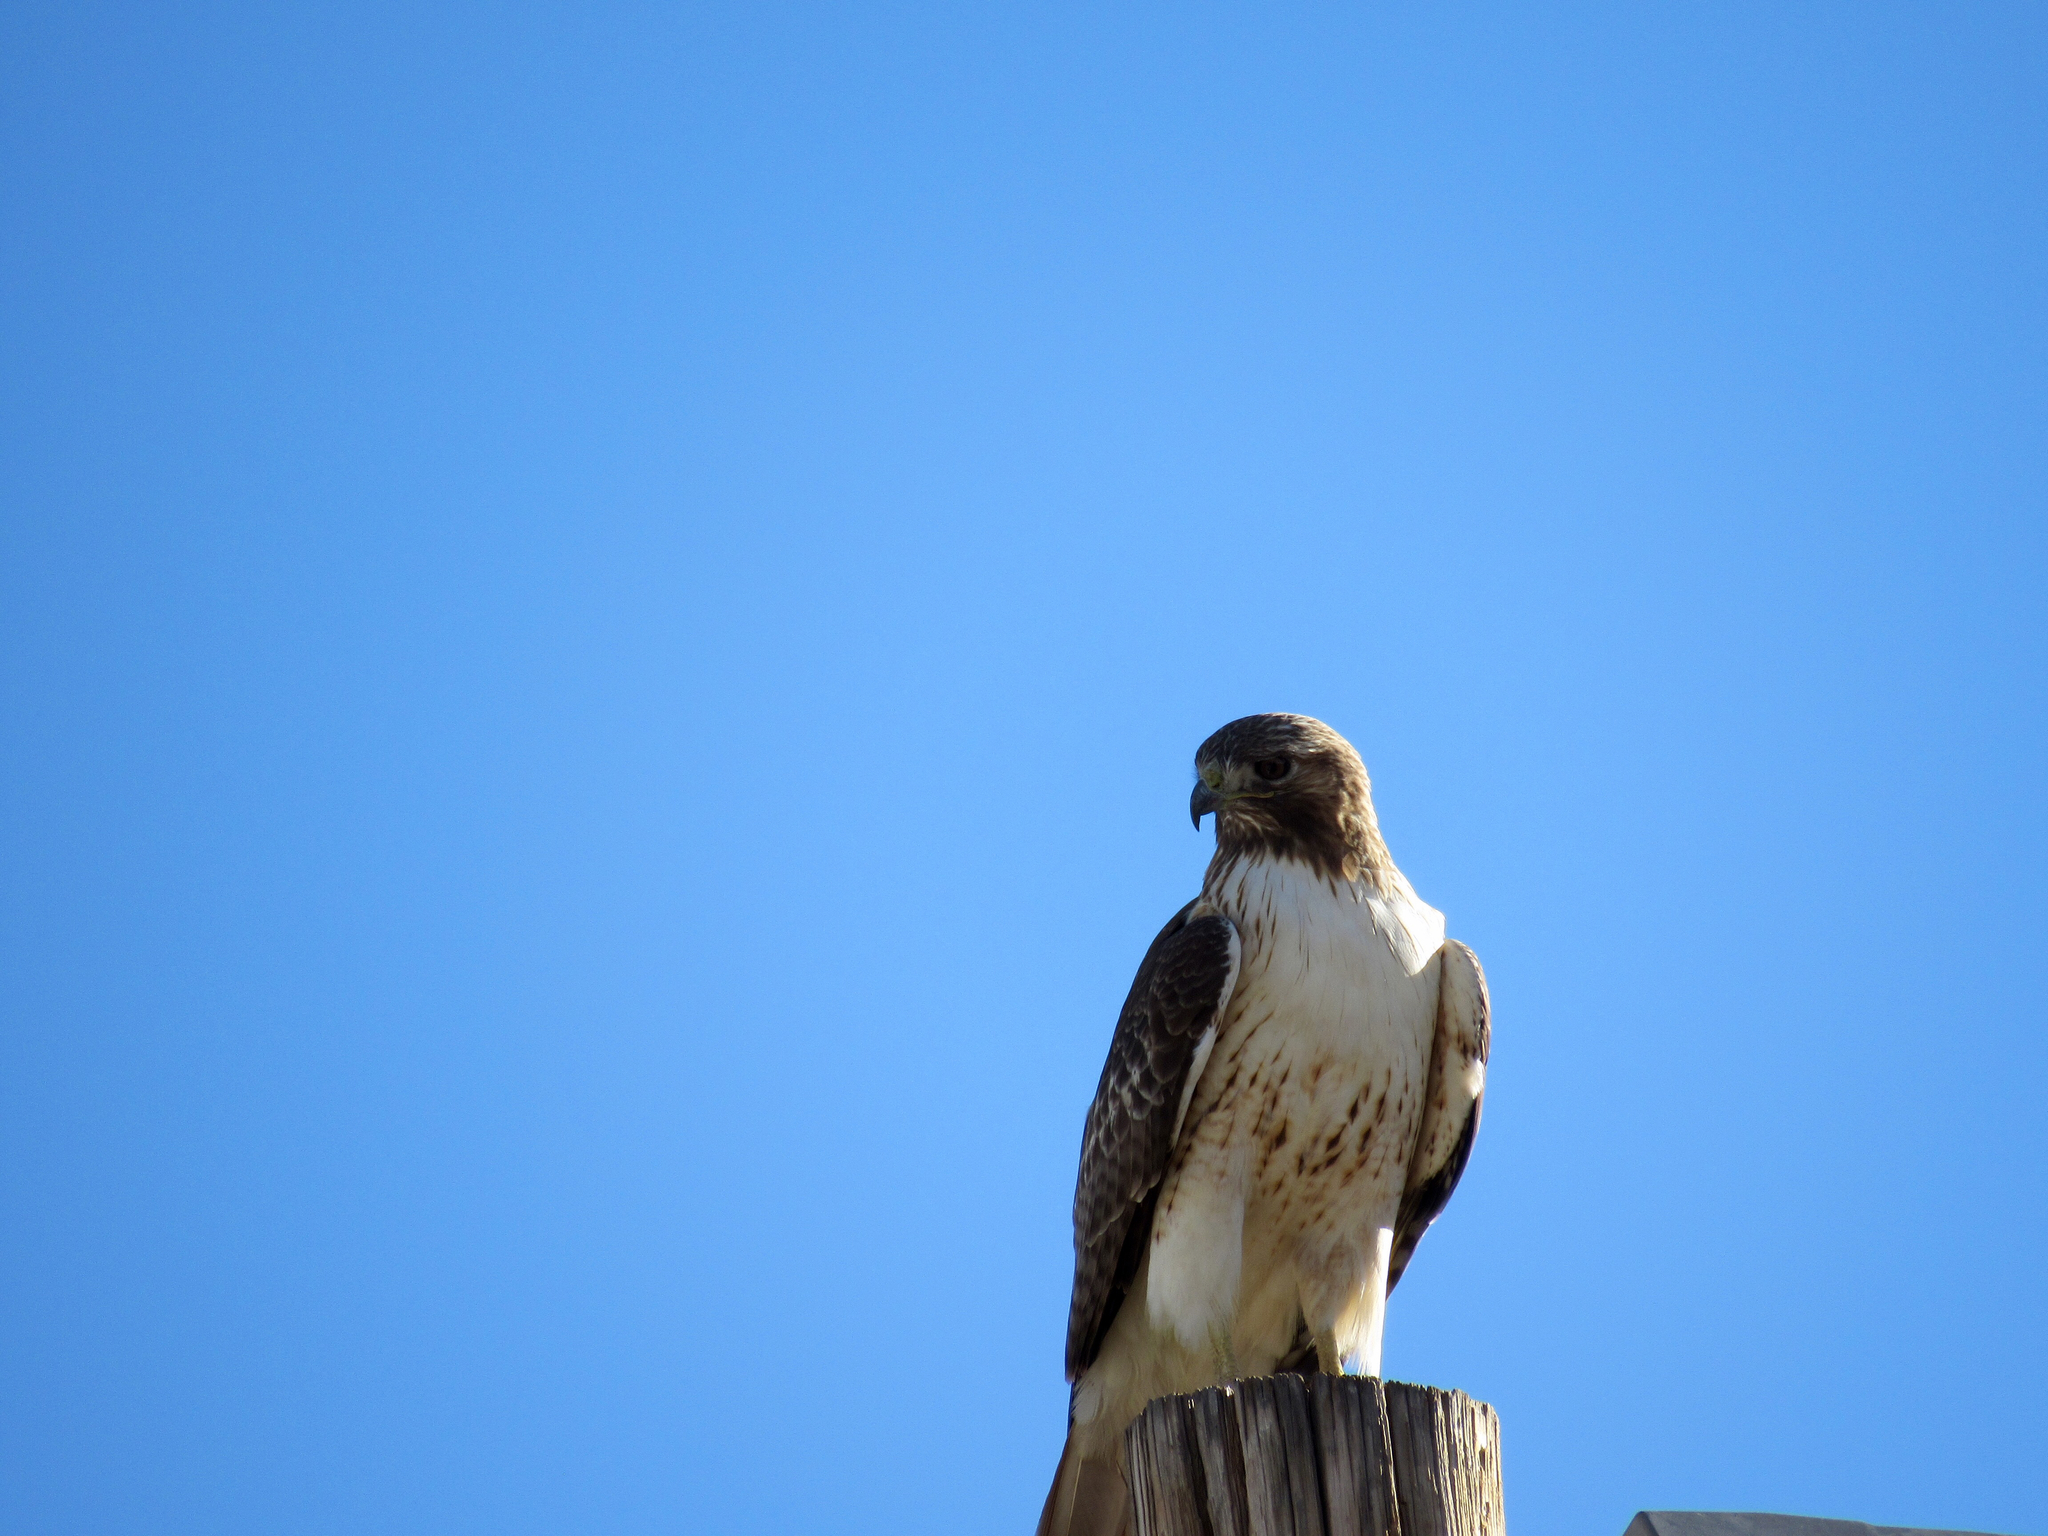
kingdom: Animalia
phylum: Chordata
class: Aves
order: Accipitriformes
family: Accipitridae
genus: Buteo
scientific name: Buteo jamaicensis
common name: Red-tailed hawk
